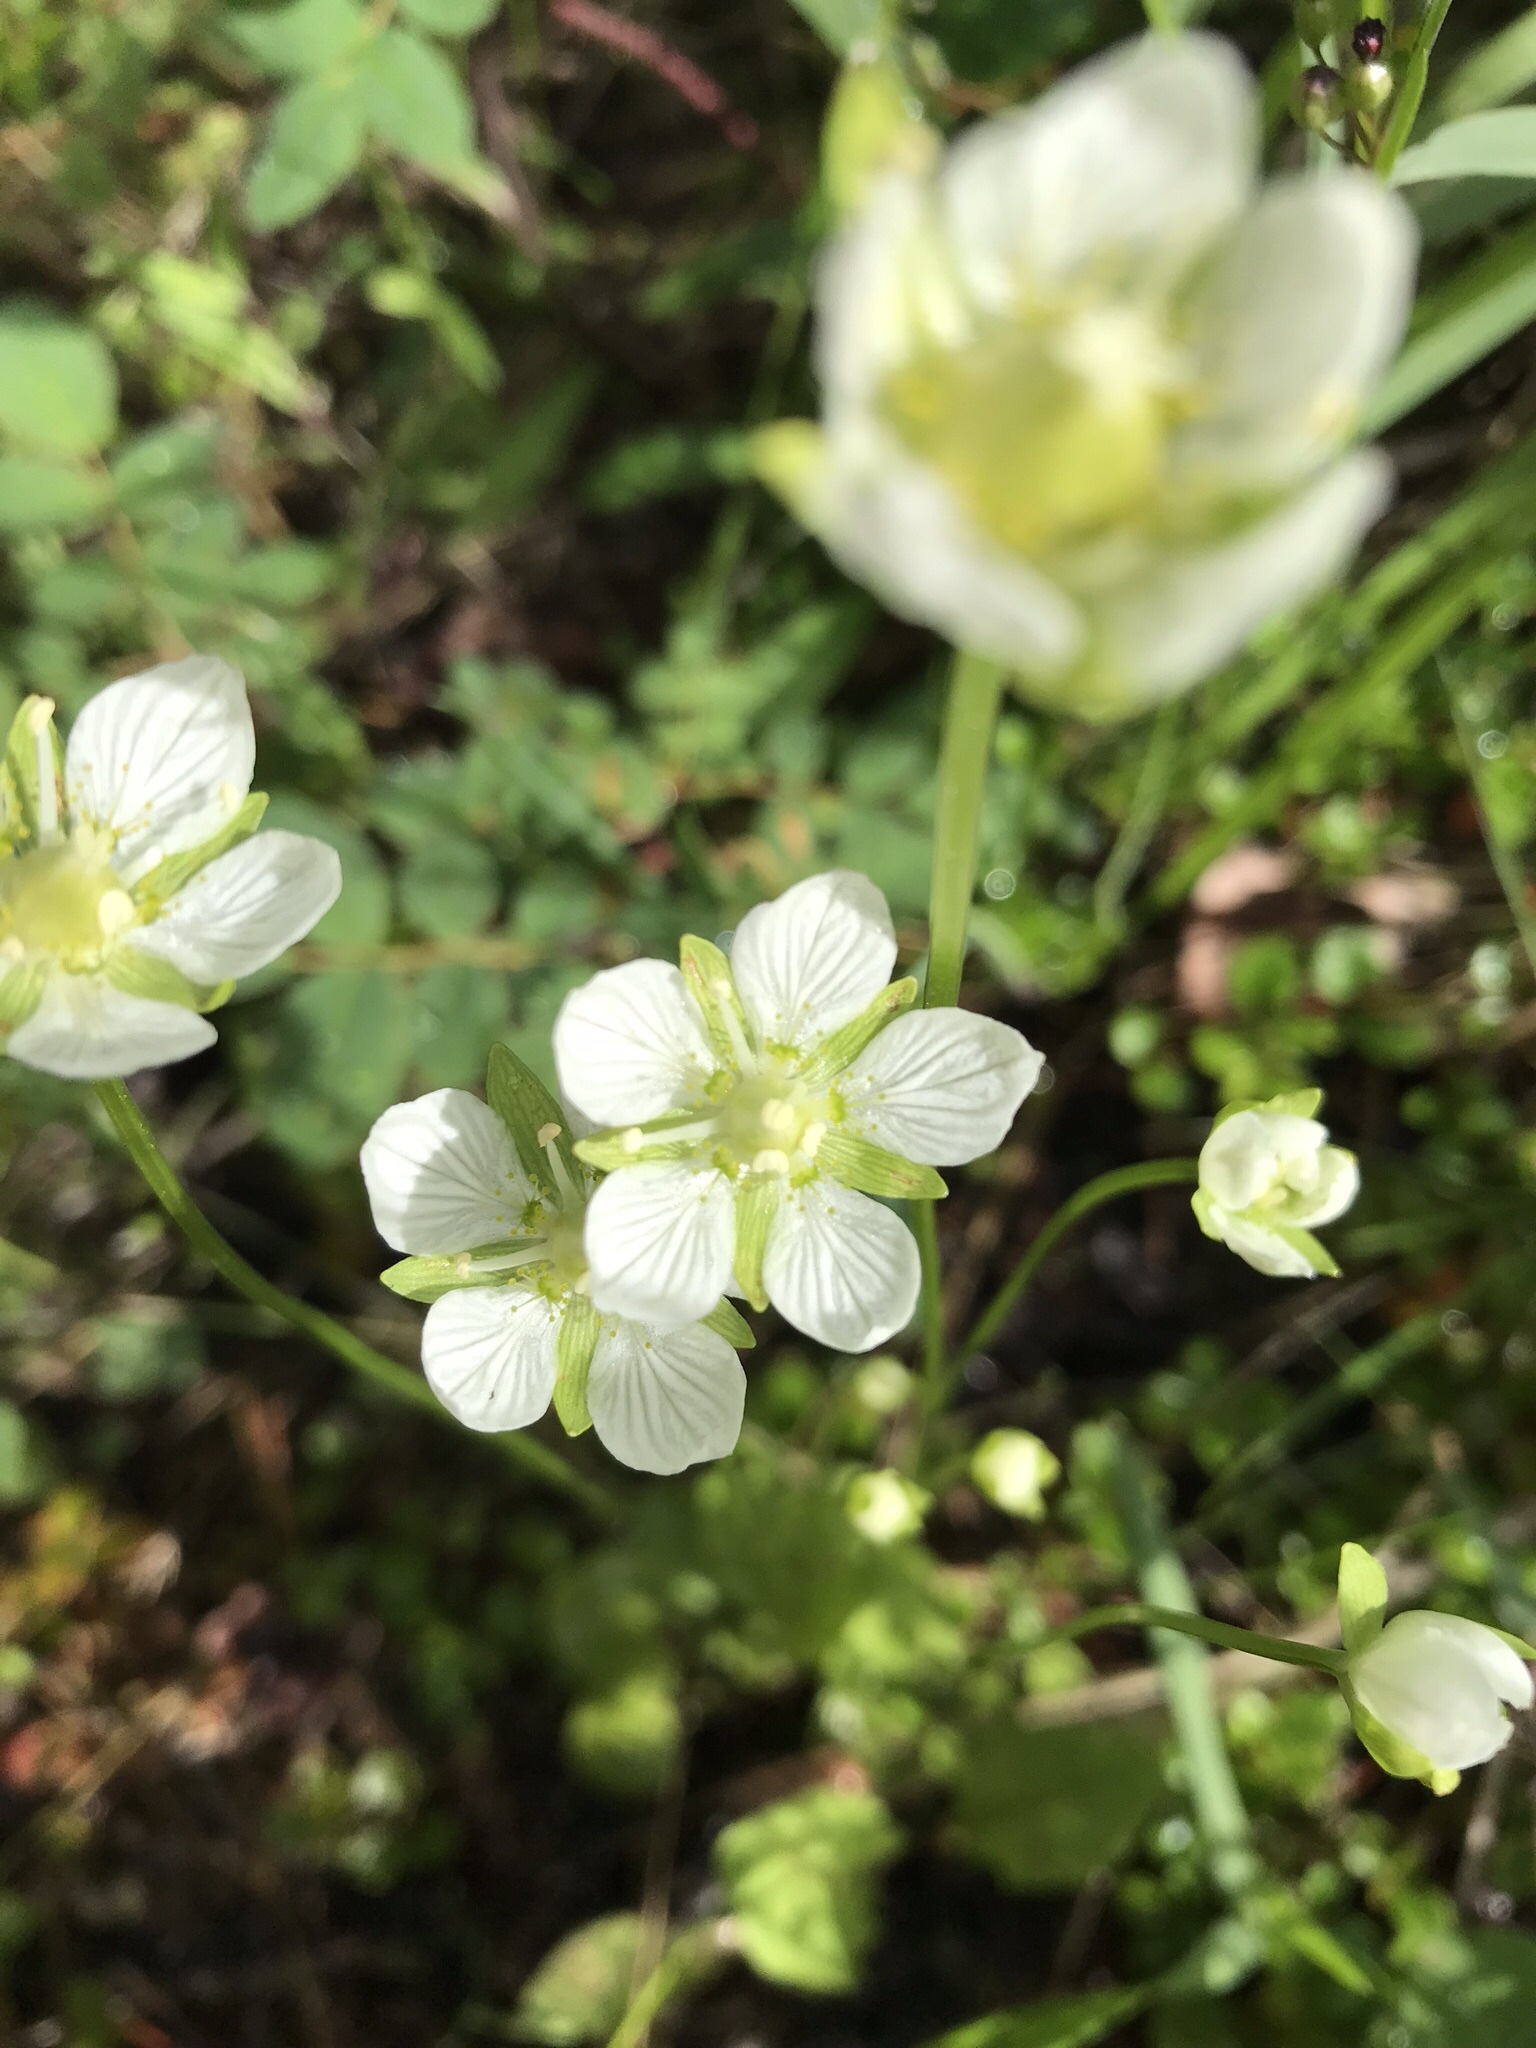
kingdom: Plantae
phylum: Tracheophyta
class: Magnoliopsida
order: Celastrales
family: Parnassiaceae
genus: Parnassia
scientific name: Parnassia palustris
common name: Grass-of-parnassus
